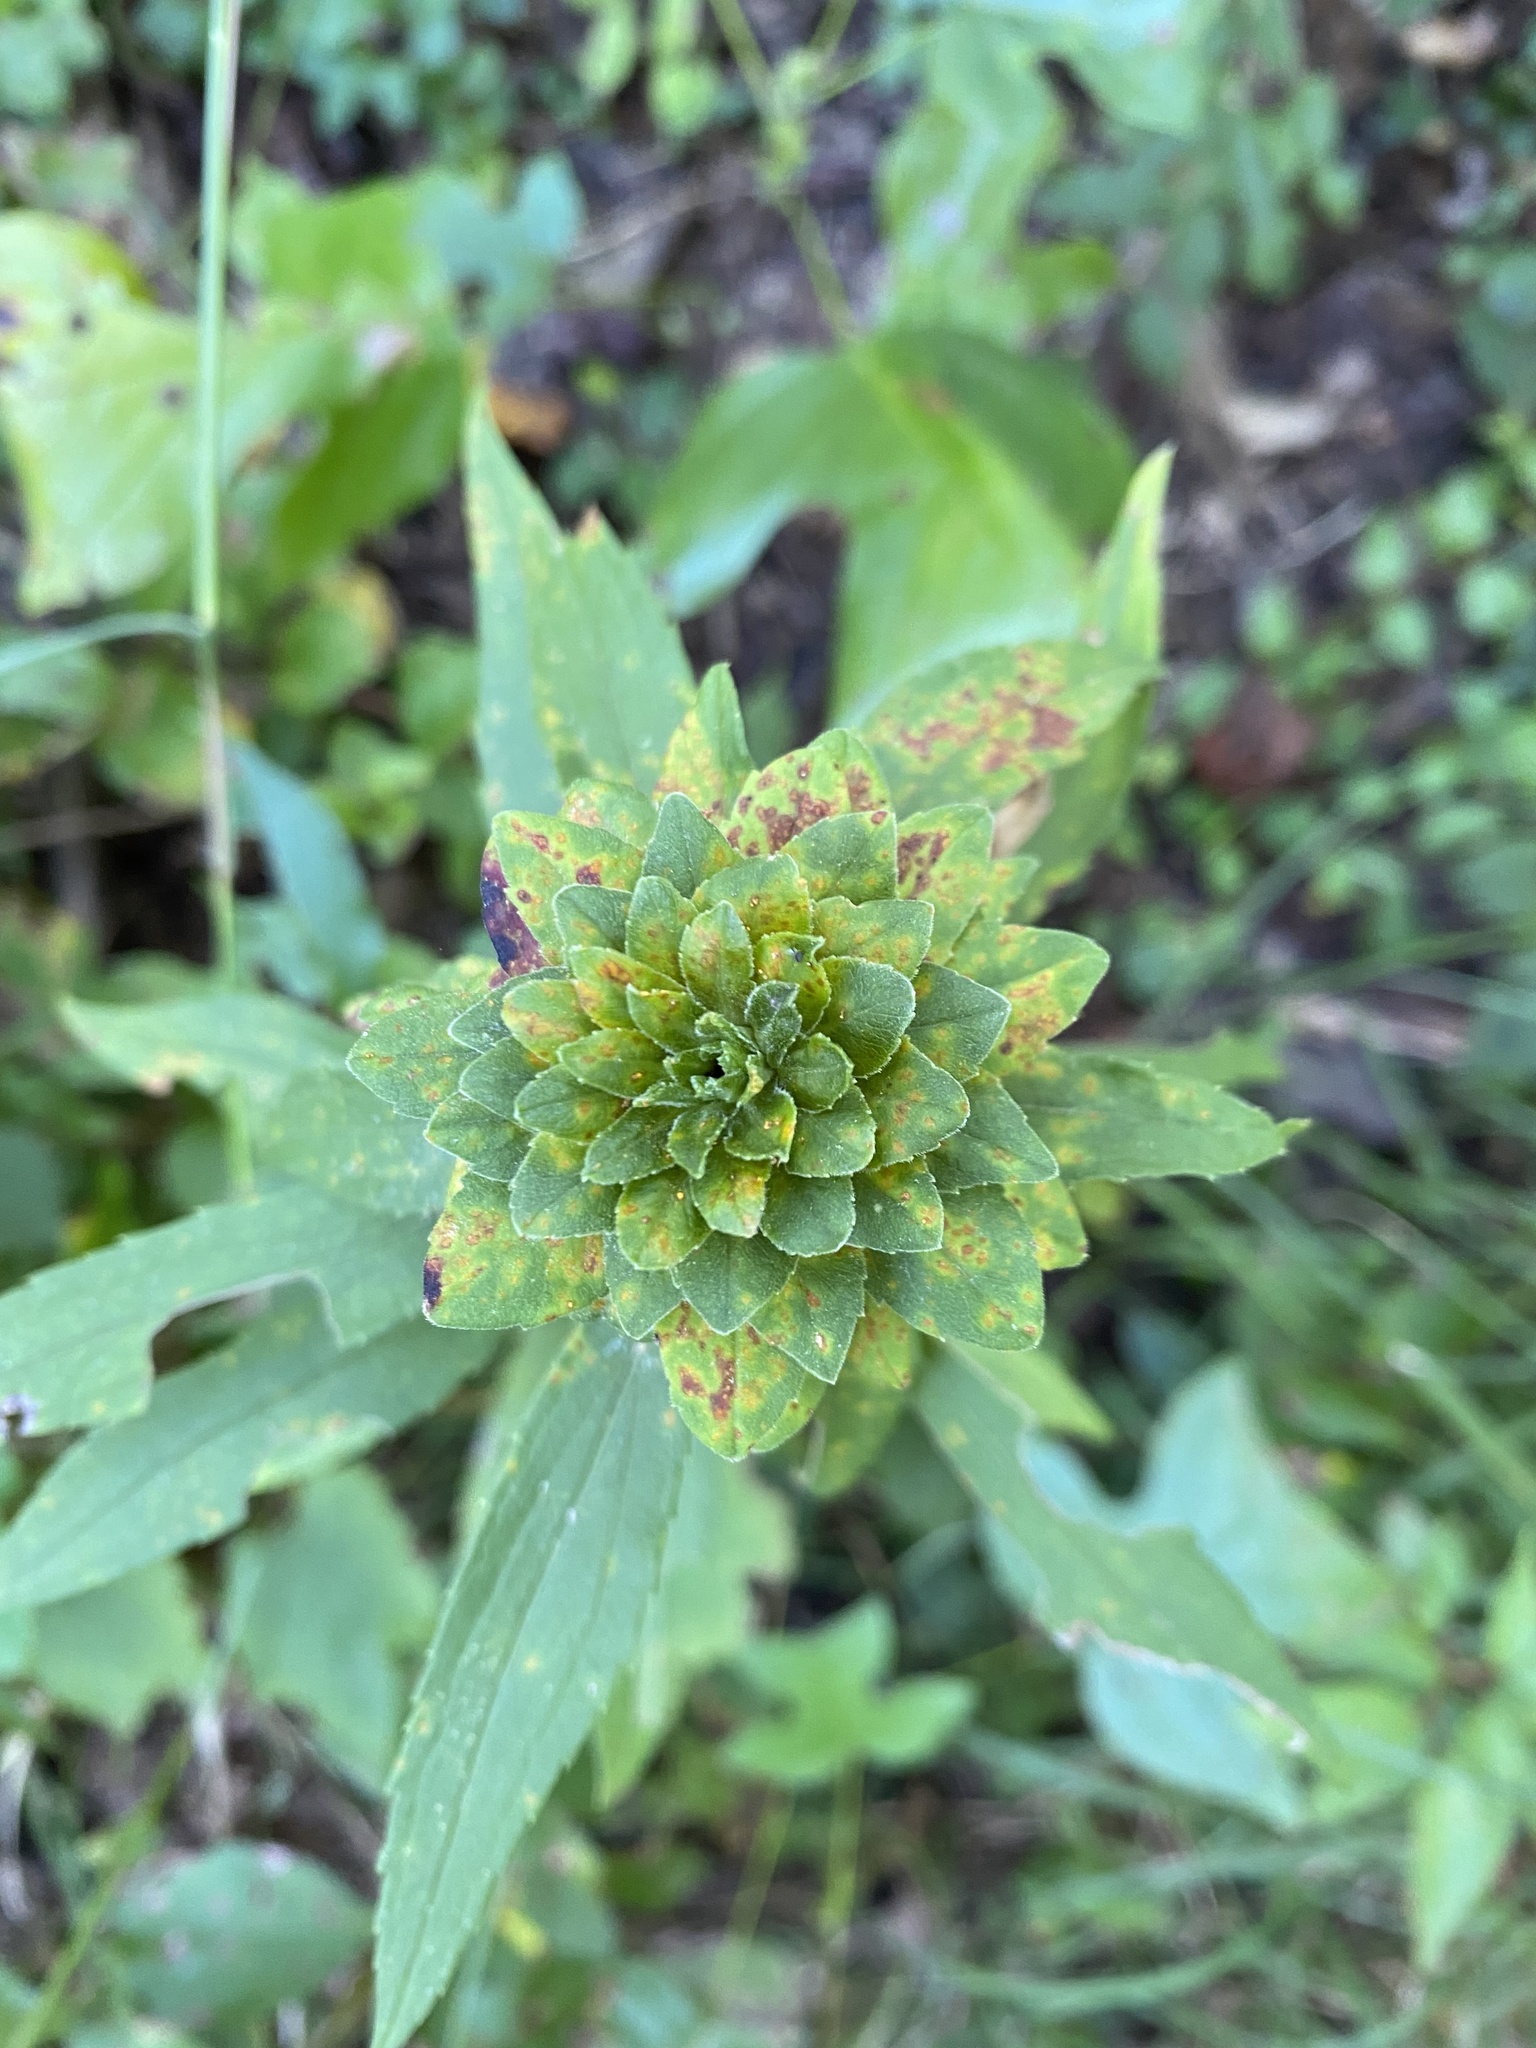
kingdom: Animalia
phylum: Arthropoda
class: Insecta
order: Diptera
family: Tephritidae
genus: Procecidochares
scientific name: Procecidochares atra
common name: Goldenrod brussels sprout gall fly
